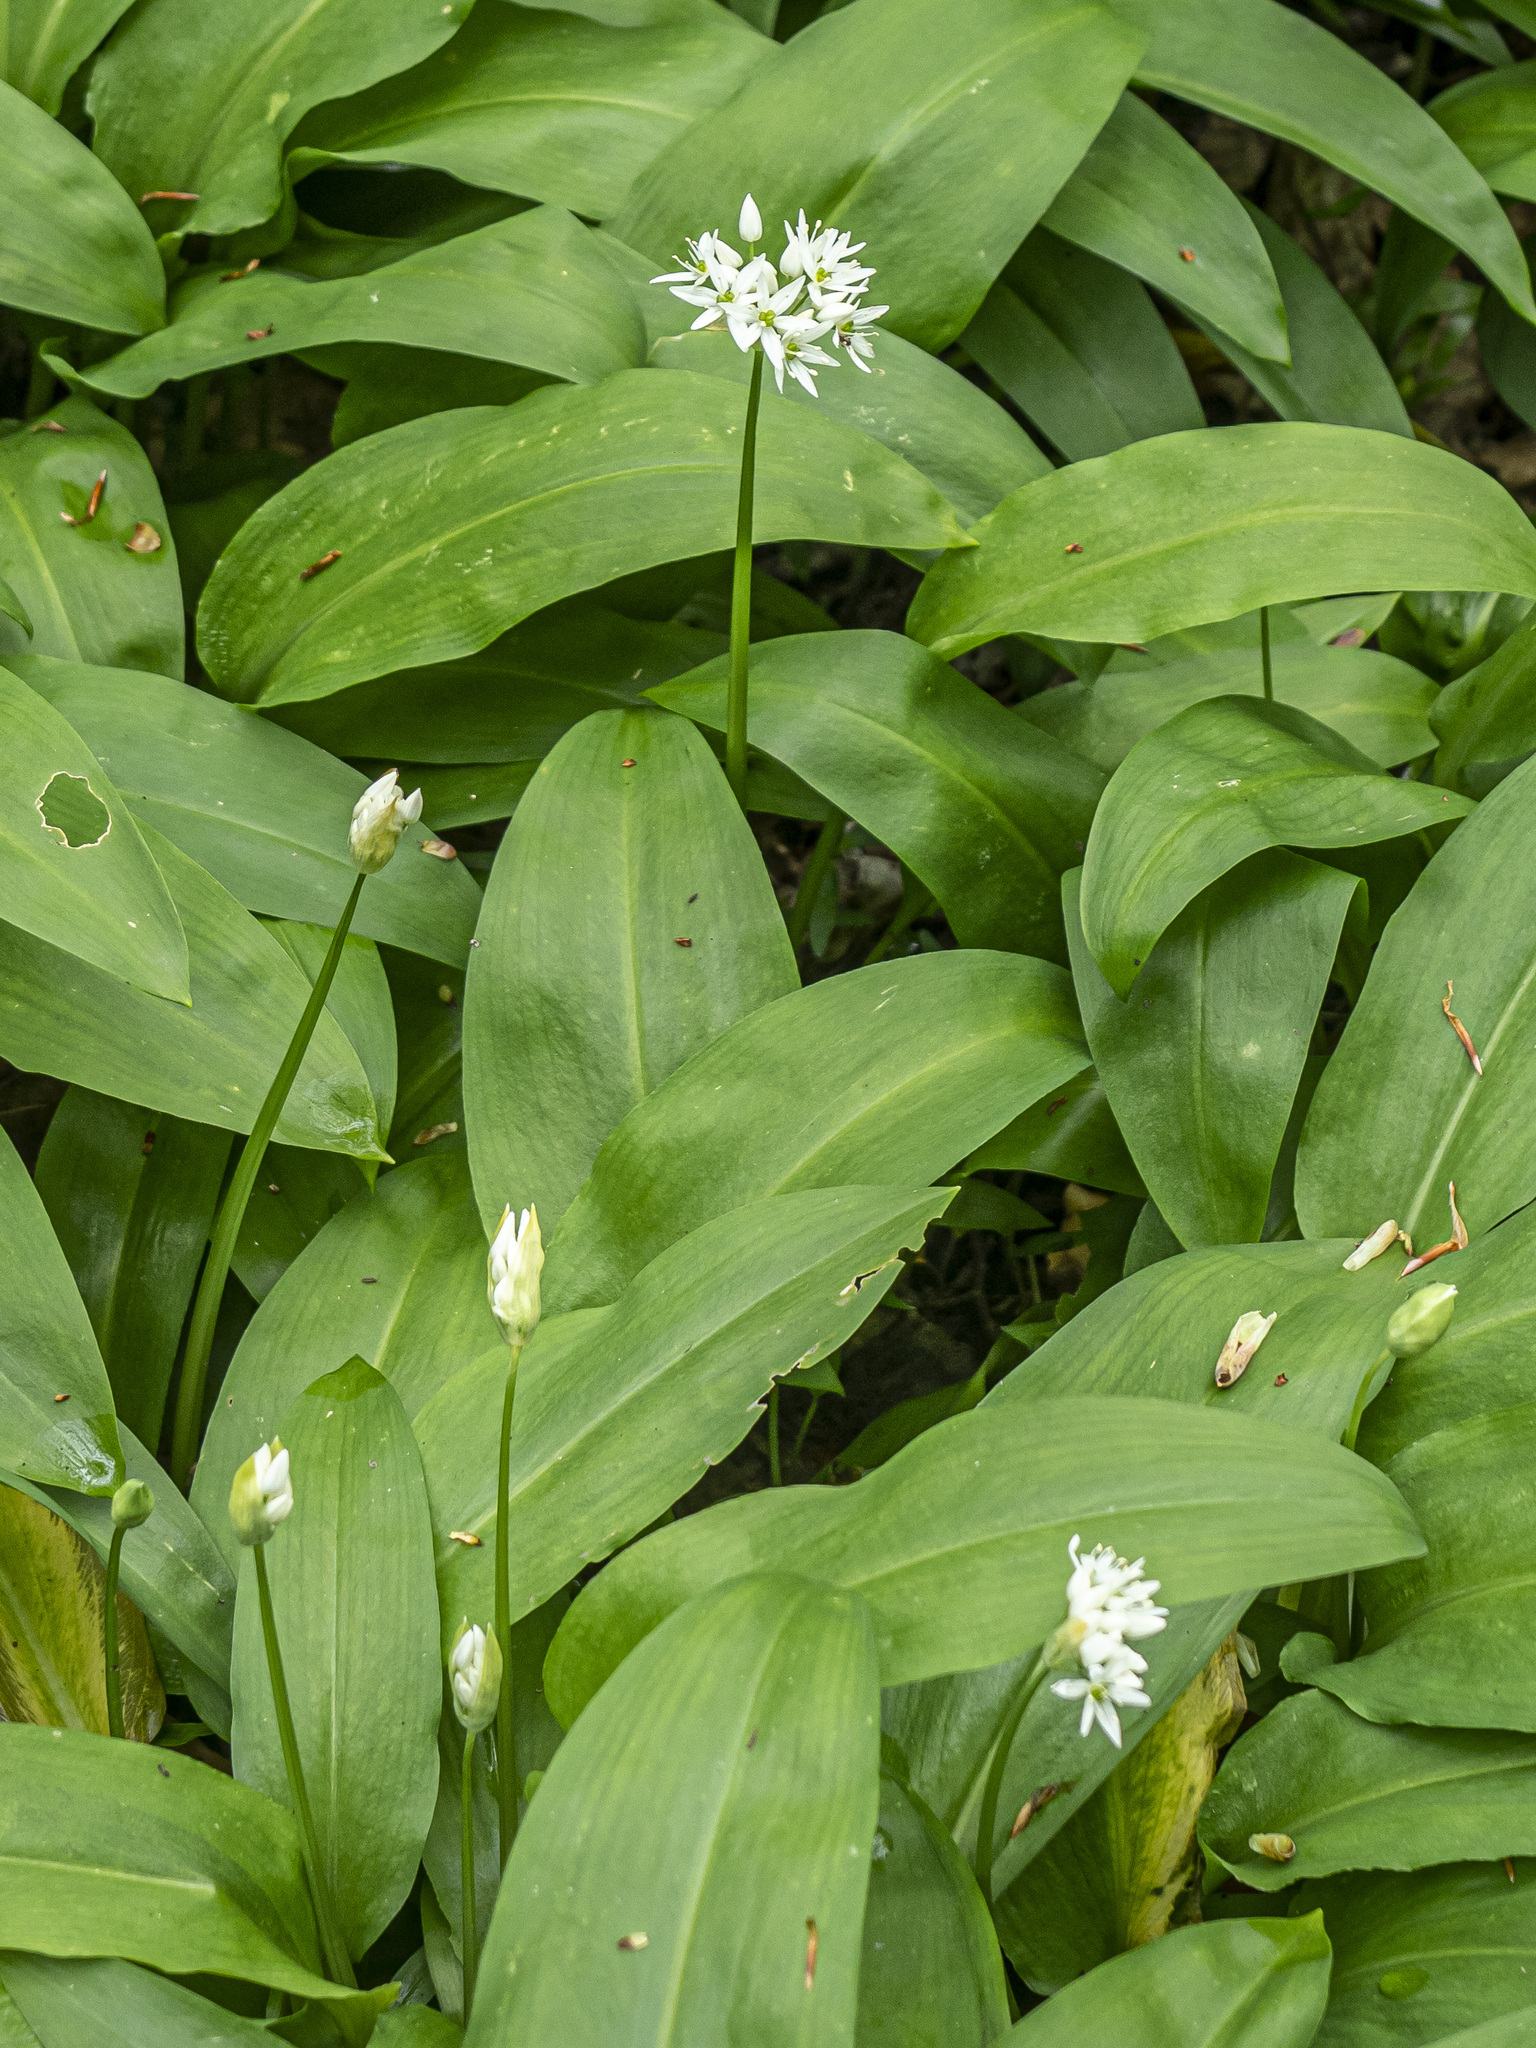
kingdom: Plantae
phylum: Tracheophyta
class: Liliopsida
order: Asparagales
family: Amaryllidaceae
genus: Allium
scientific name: Allium ursinum
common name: Ramsons
